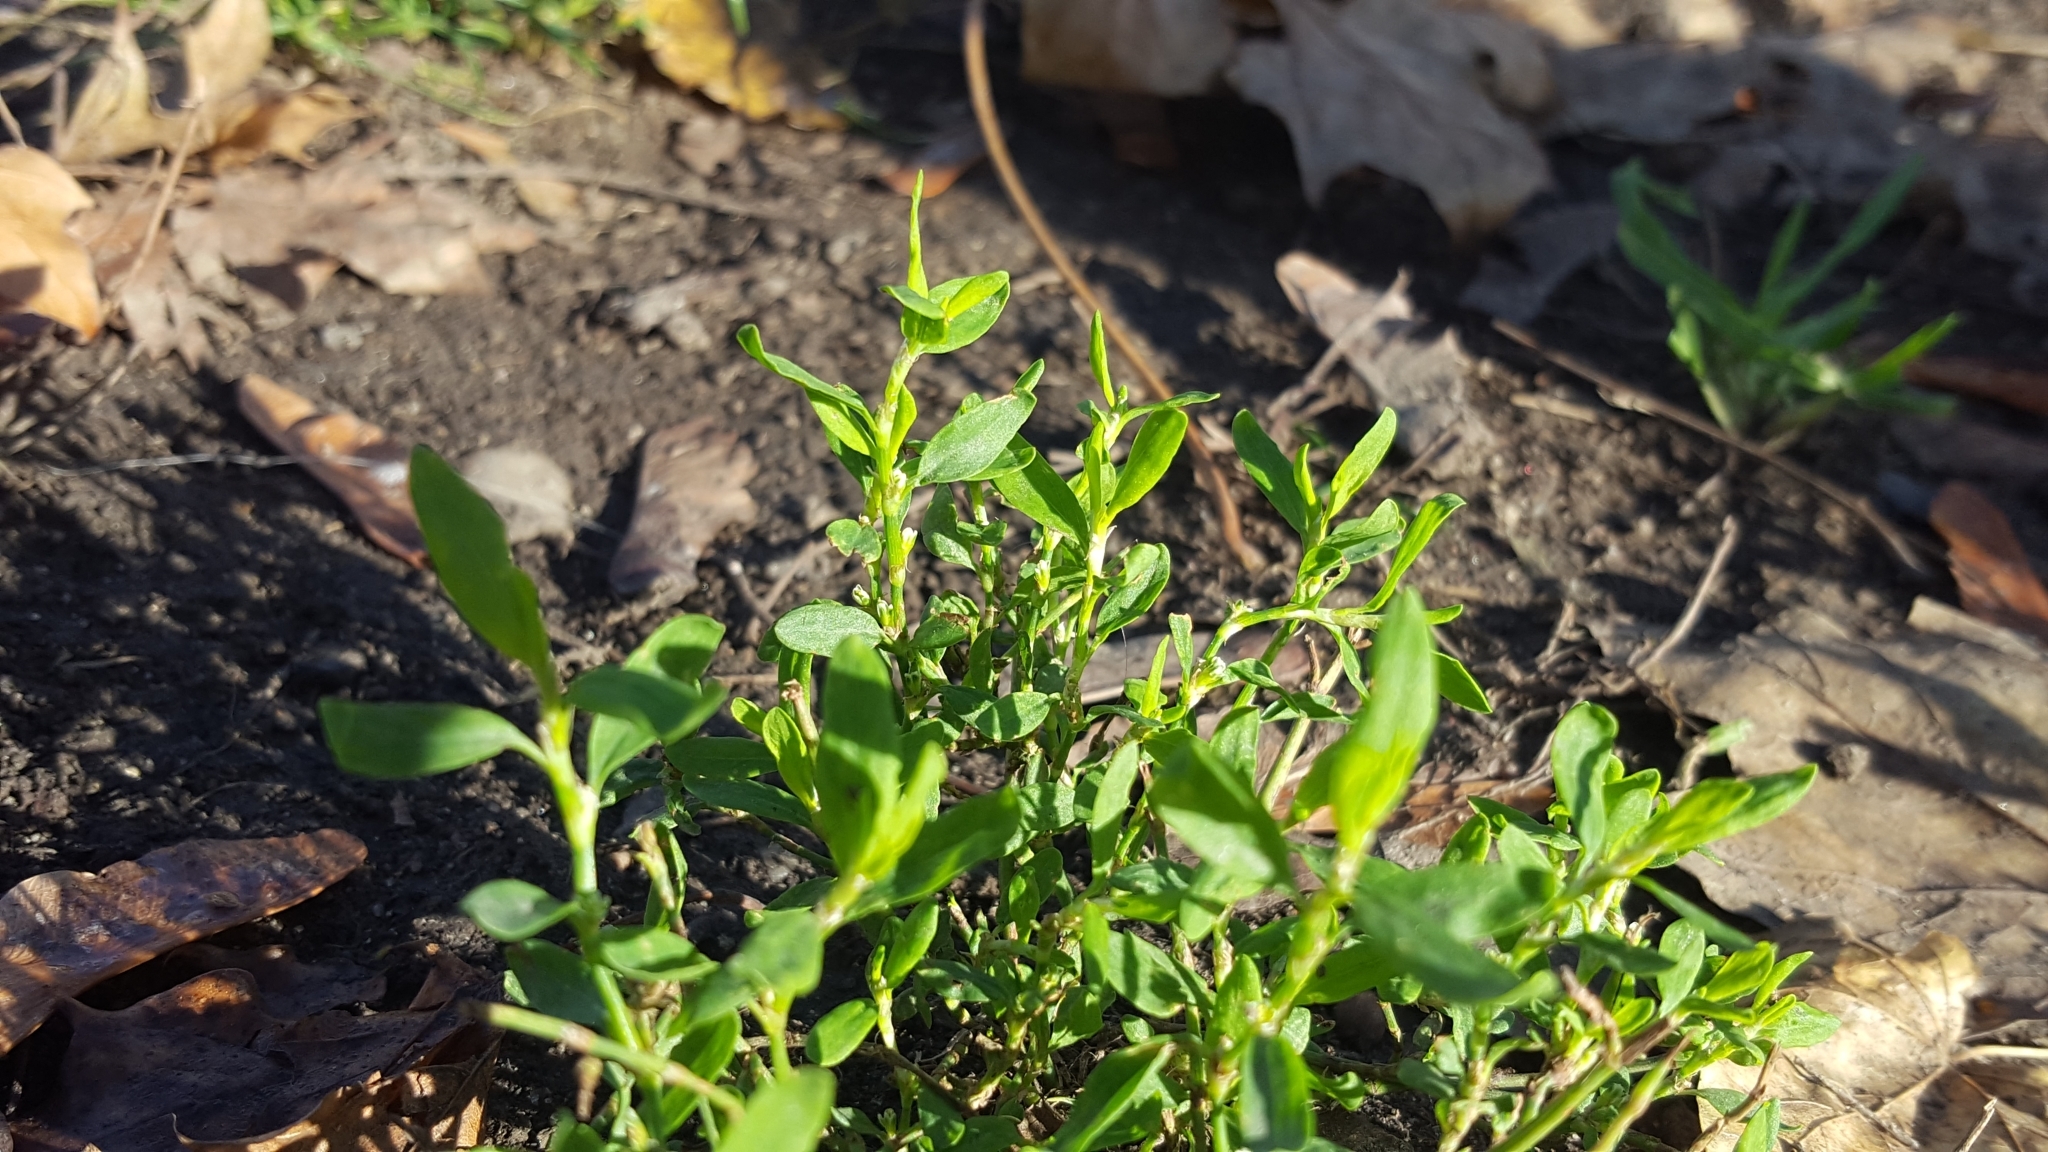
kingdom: Plantae
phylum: Tracheophyta
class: Magnoliopsida
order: Caryophyllales
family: Polygonaceae
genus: Polygonum
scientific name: Polygonum aviculare
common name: Prostrate knotweed
